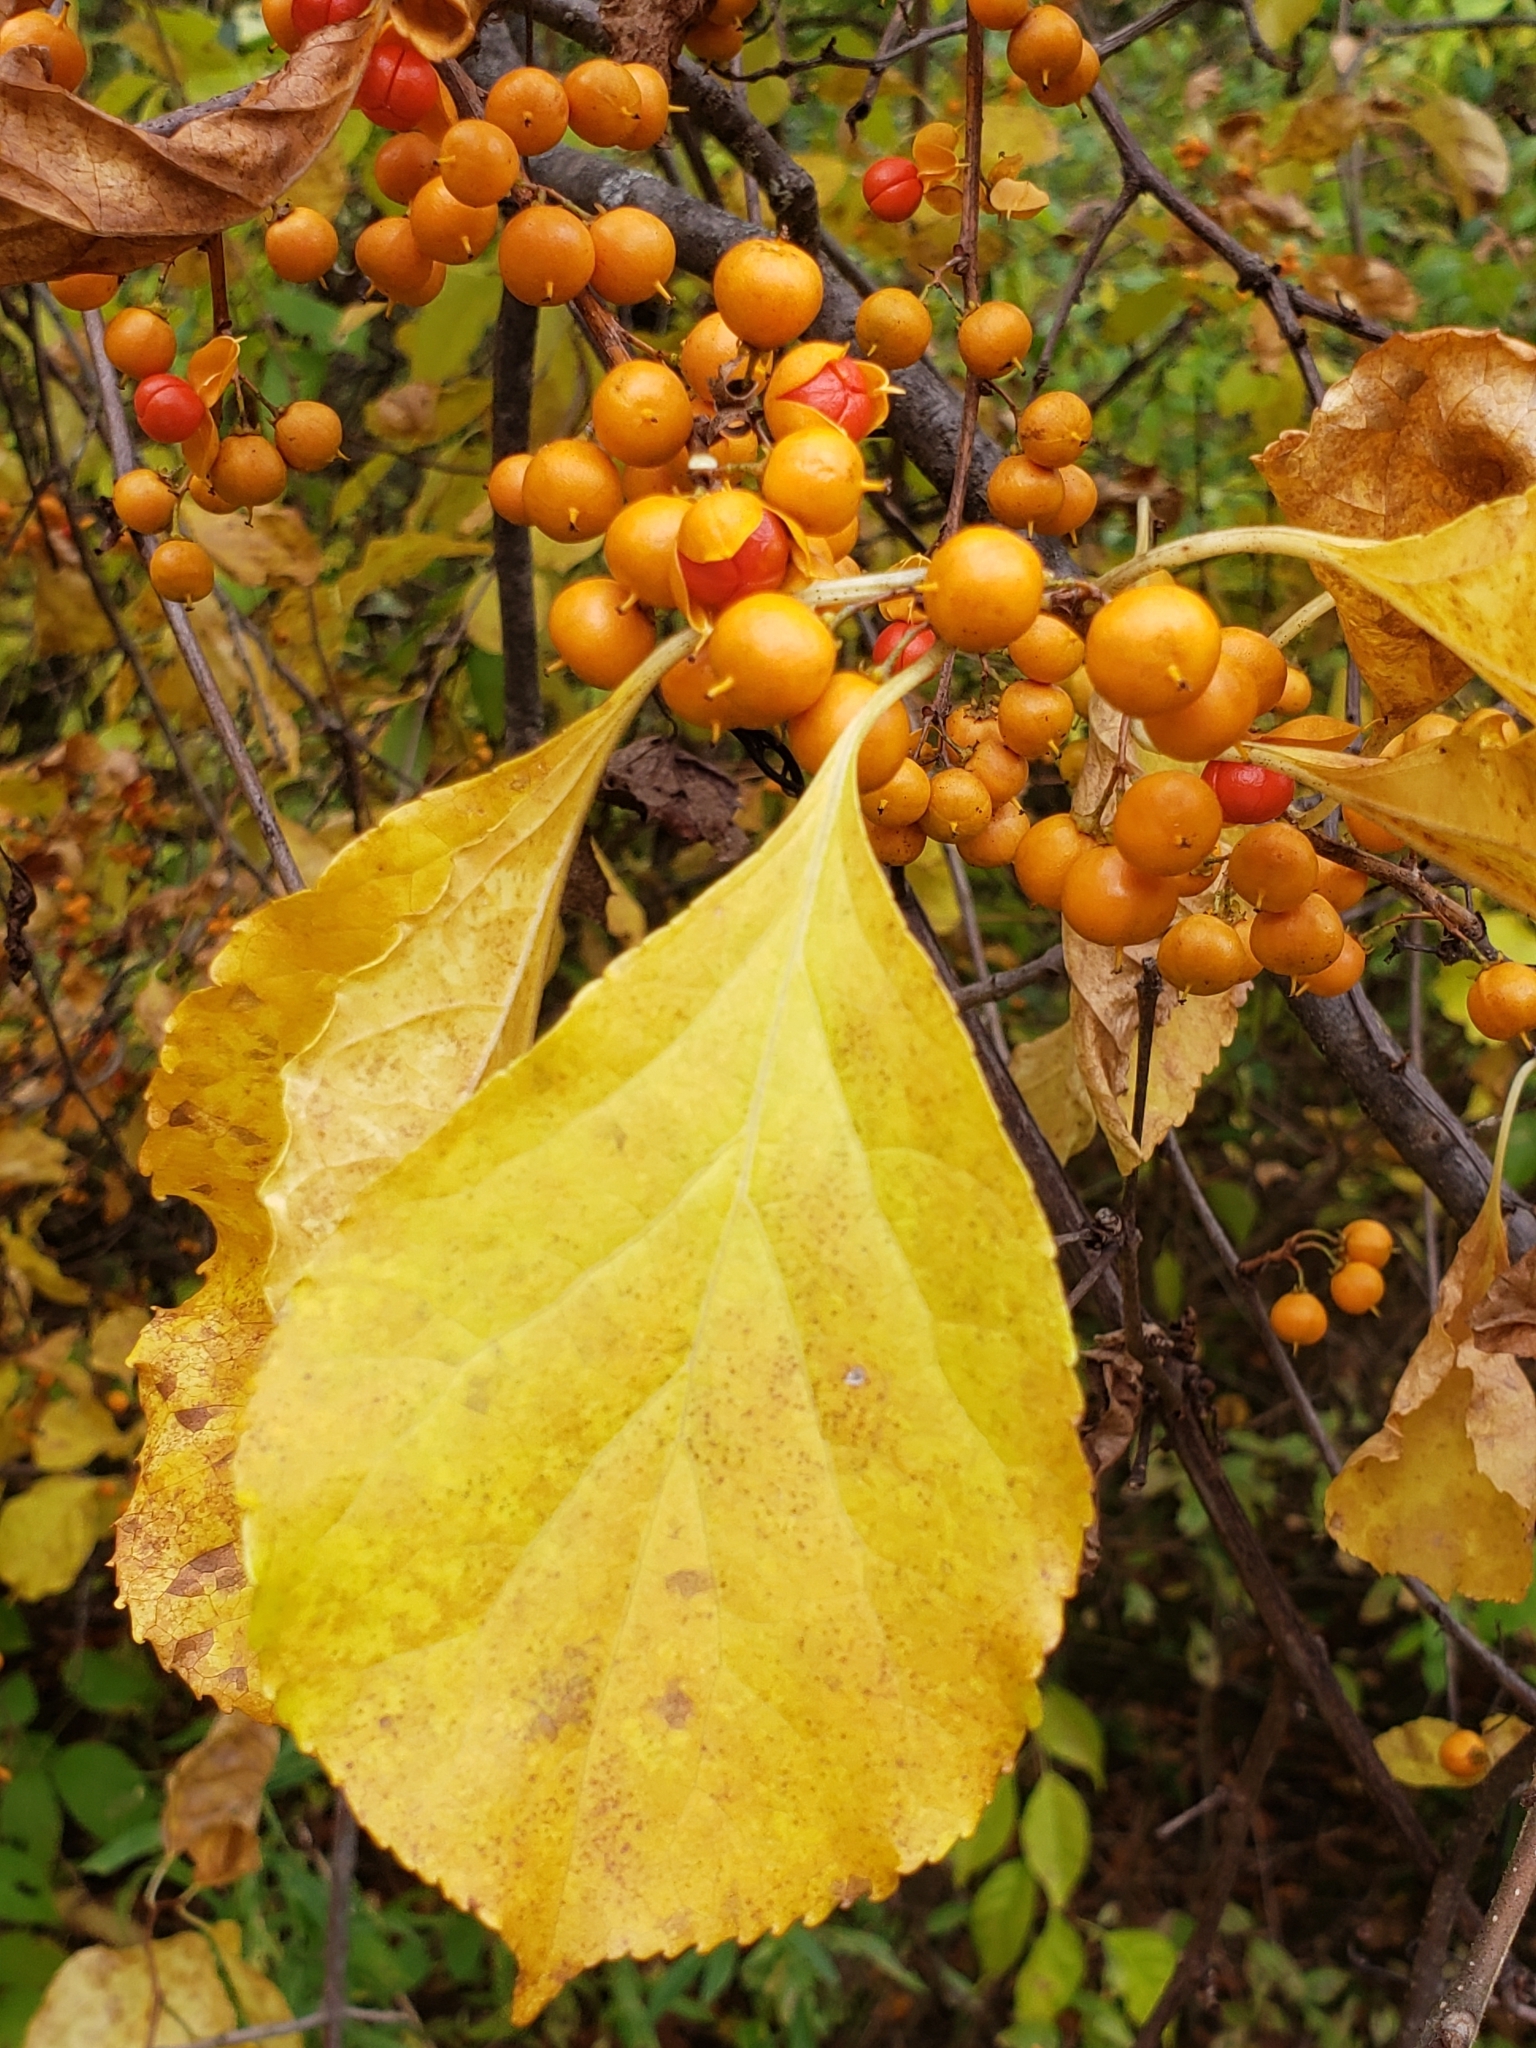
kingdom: Plantae
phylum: Tracheophyta
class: Magnoliopsida
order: Celastrales
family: Celastraceae
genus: Celastrus
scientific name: Celastrus orbiculatus
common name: Oriental bittersweet
